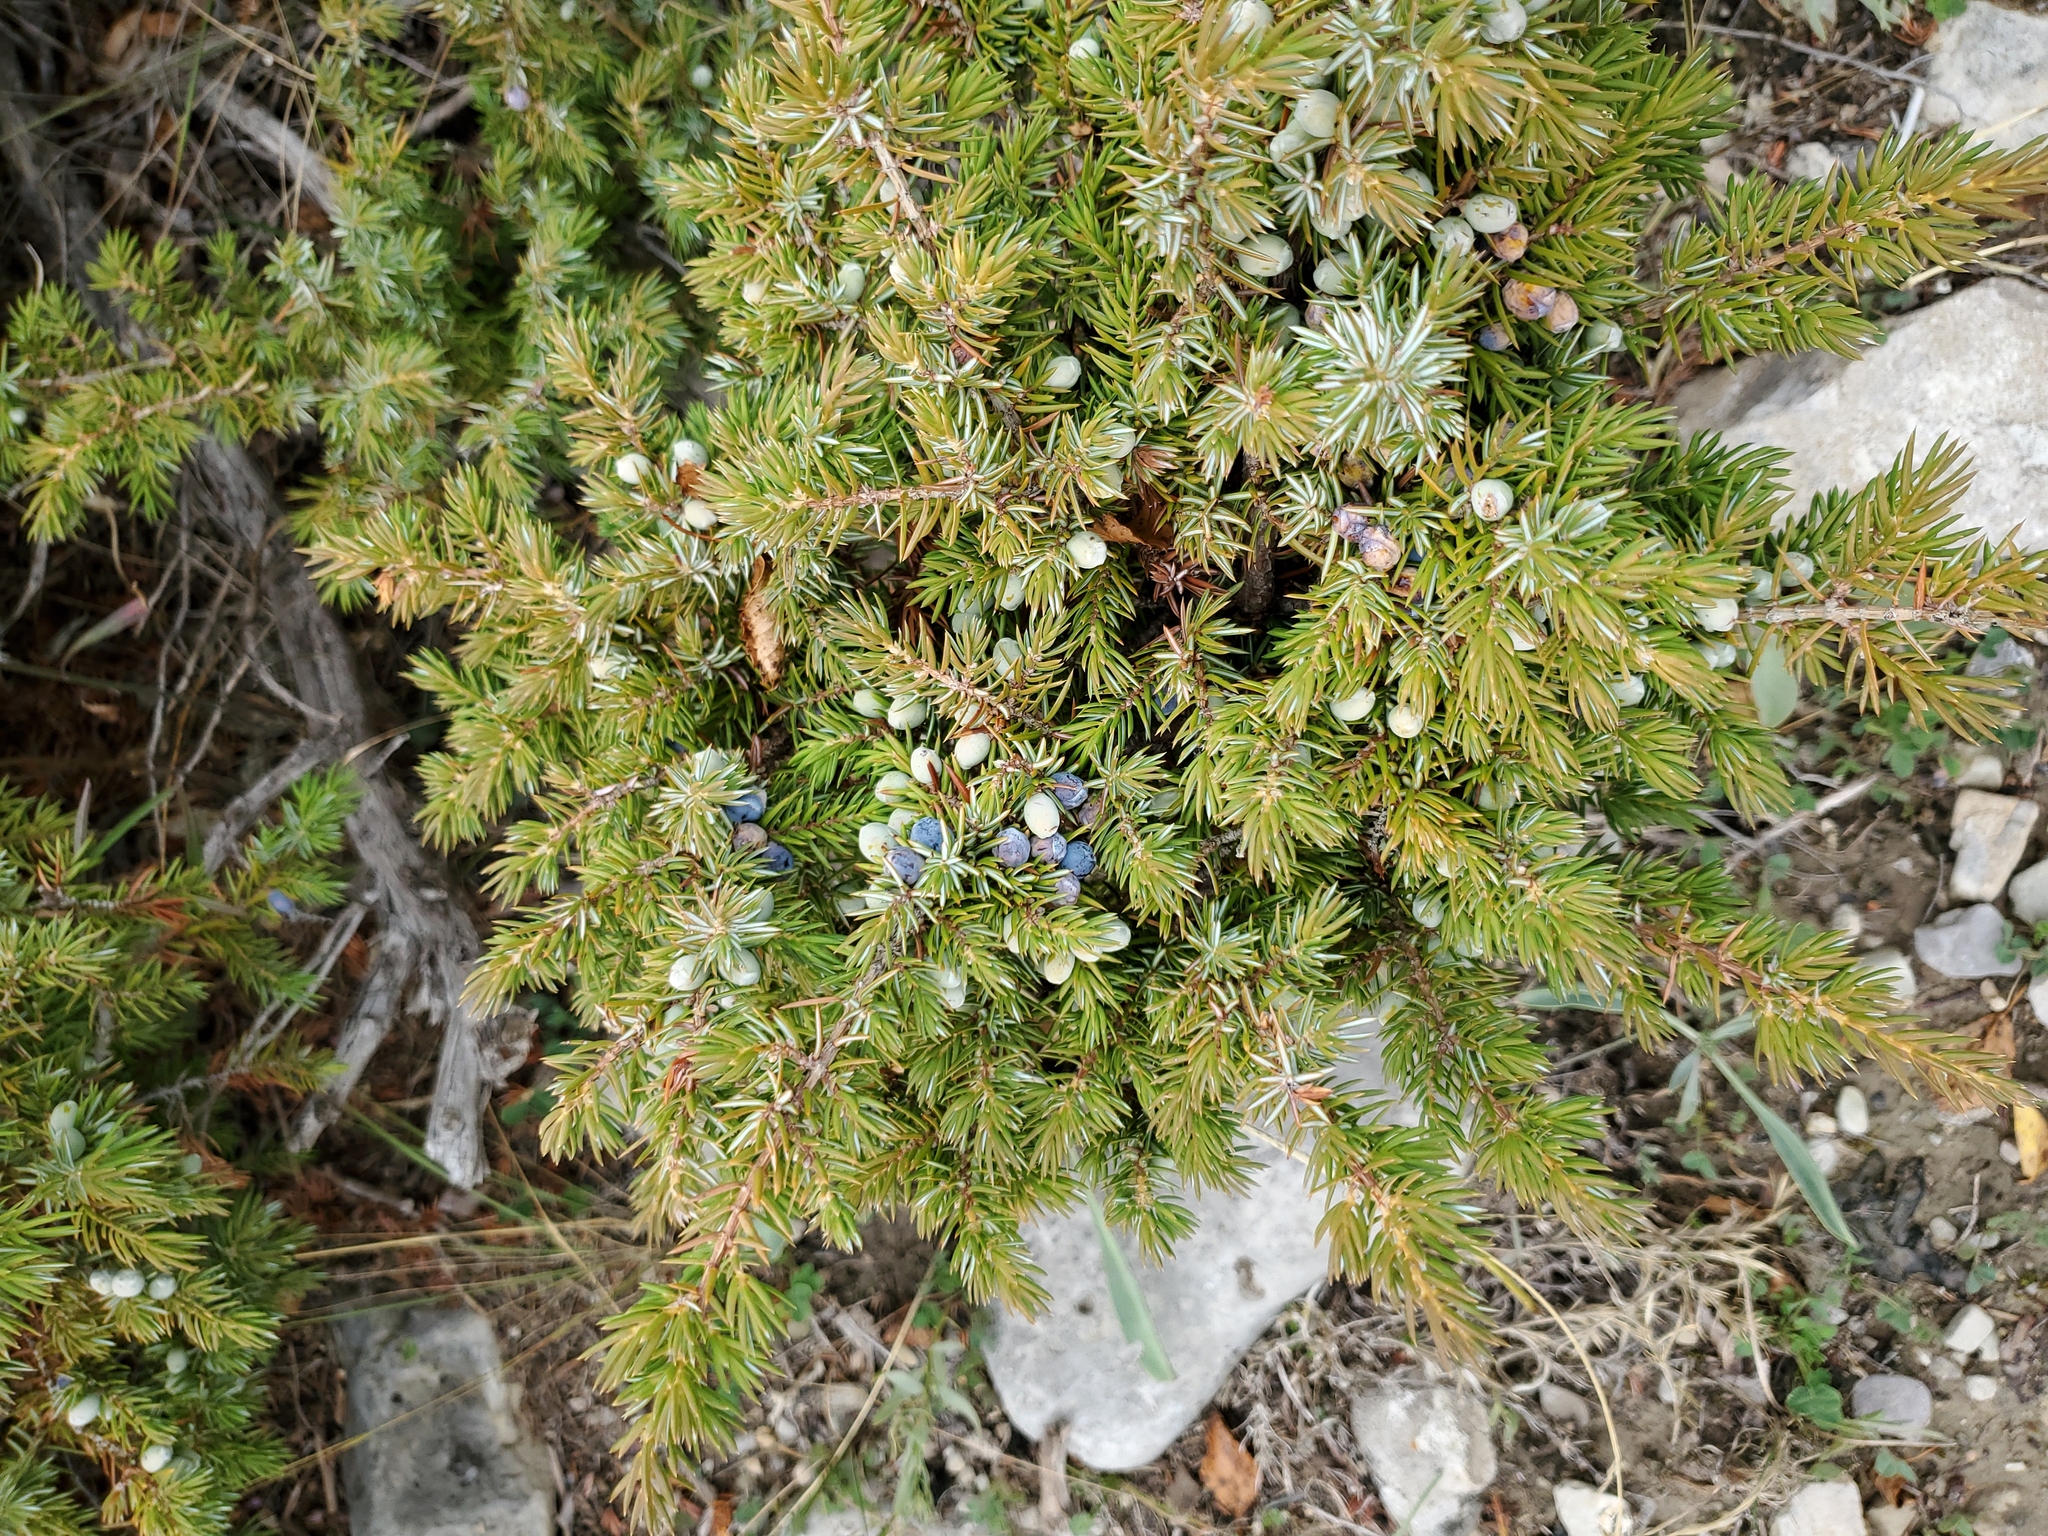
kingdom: Plantae
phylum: Tracheophyta
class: Pinopsida
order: Pinales
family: Cupressaceae
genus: Juniperus
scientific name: Juniperus communis
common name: Common juniper
